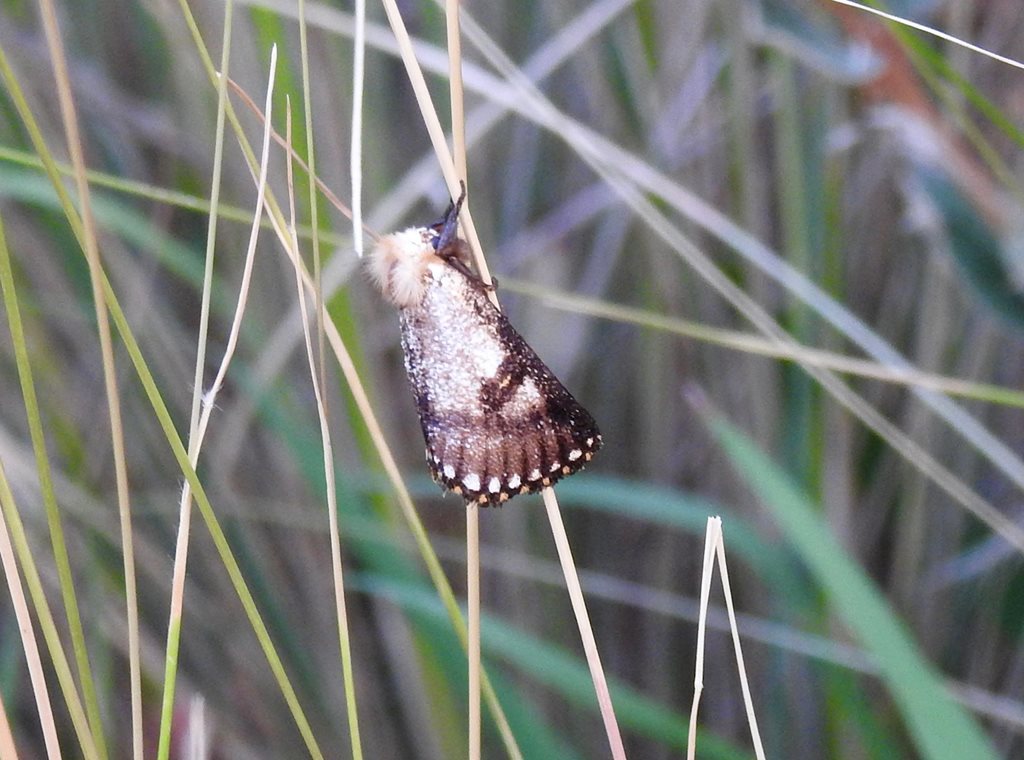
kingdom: Animalia
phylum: Arthropoda
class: Insecta
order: Lepidoptera
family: Notodontidae
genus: Epicoma
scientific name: Epicoma contristis
